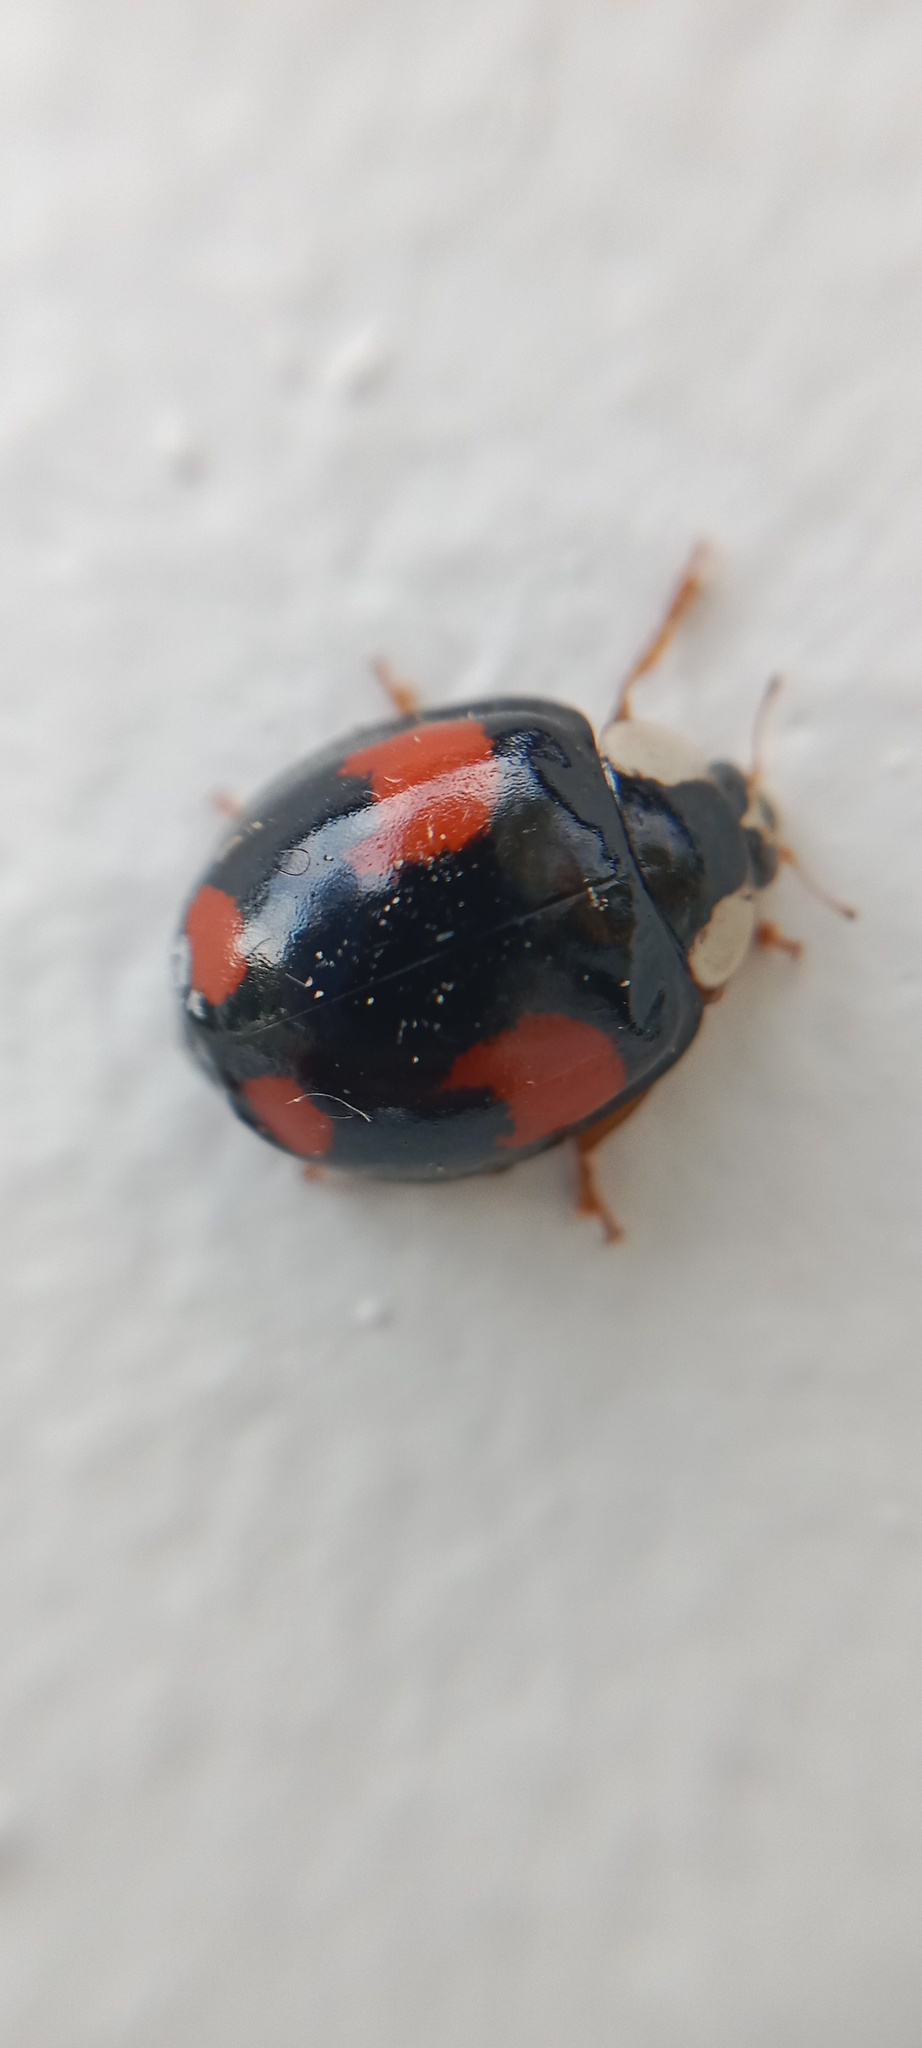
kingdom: Animalia
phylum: Arthropoda
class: Insecta
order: Coleoptera
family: Coccinellidae
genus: Harmonia
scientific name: Harmonia axyridis
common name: Harlequin ladybird
